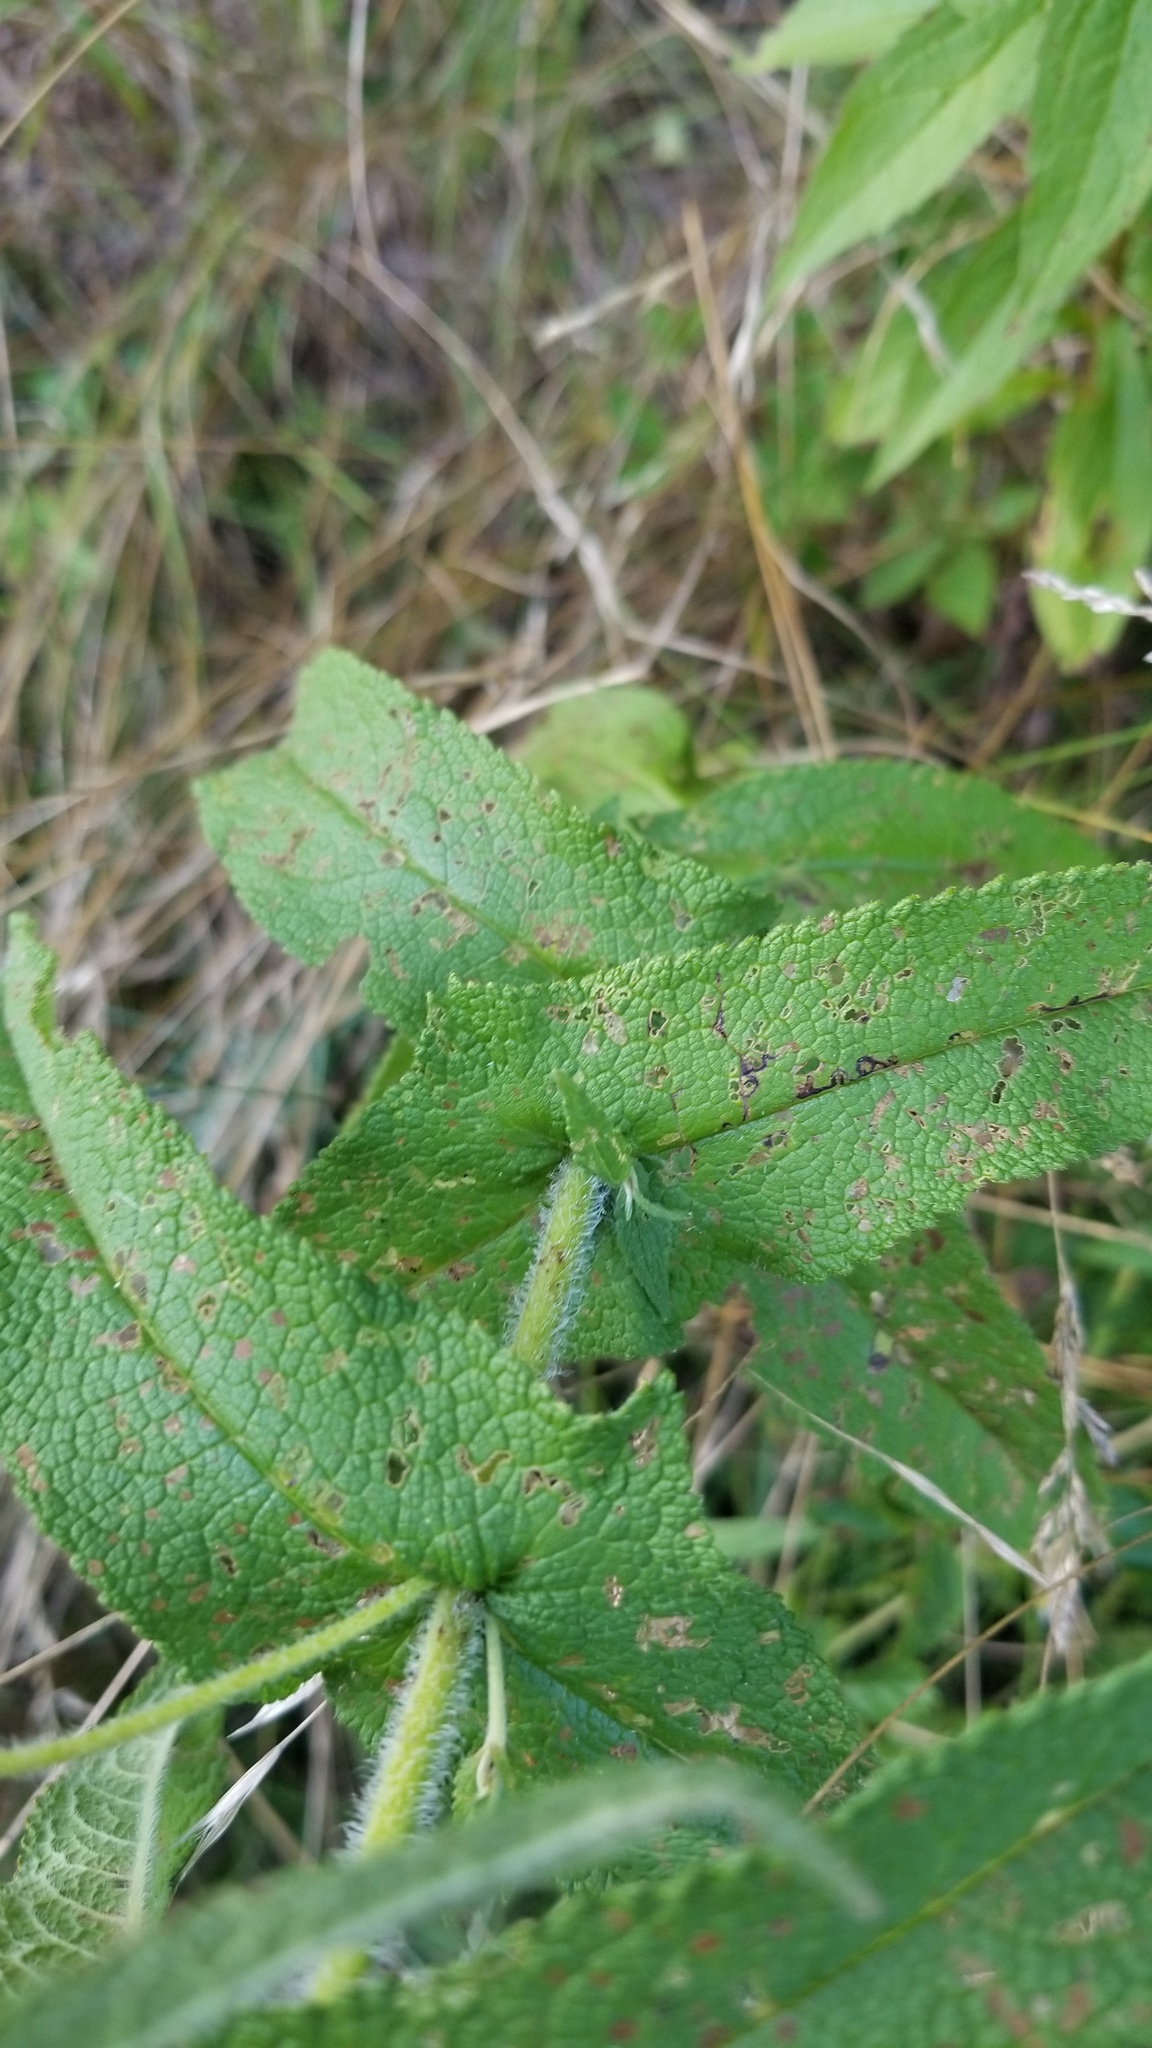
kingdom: Plantae
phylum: Tracheophyta
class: Magnoliopsida
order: Asterales
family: Asteraceae
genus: Eupatorium
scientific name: Eupatorium perfoliatum
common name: Boneset
